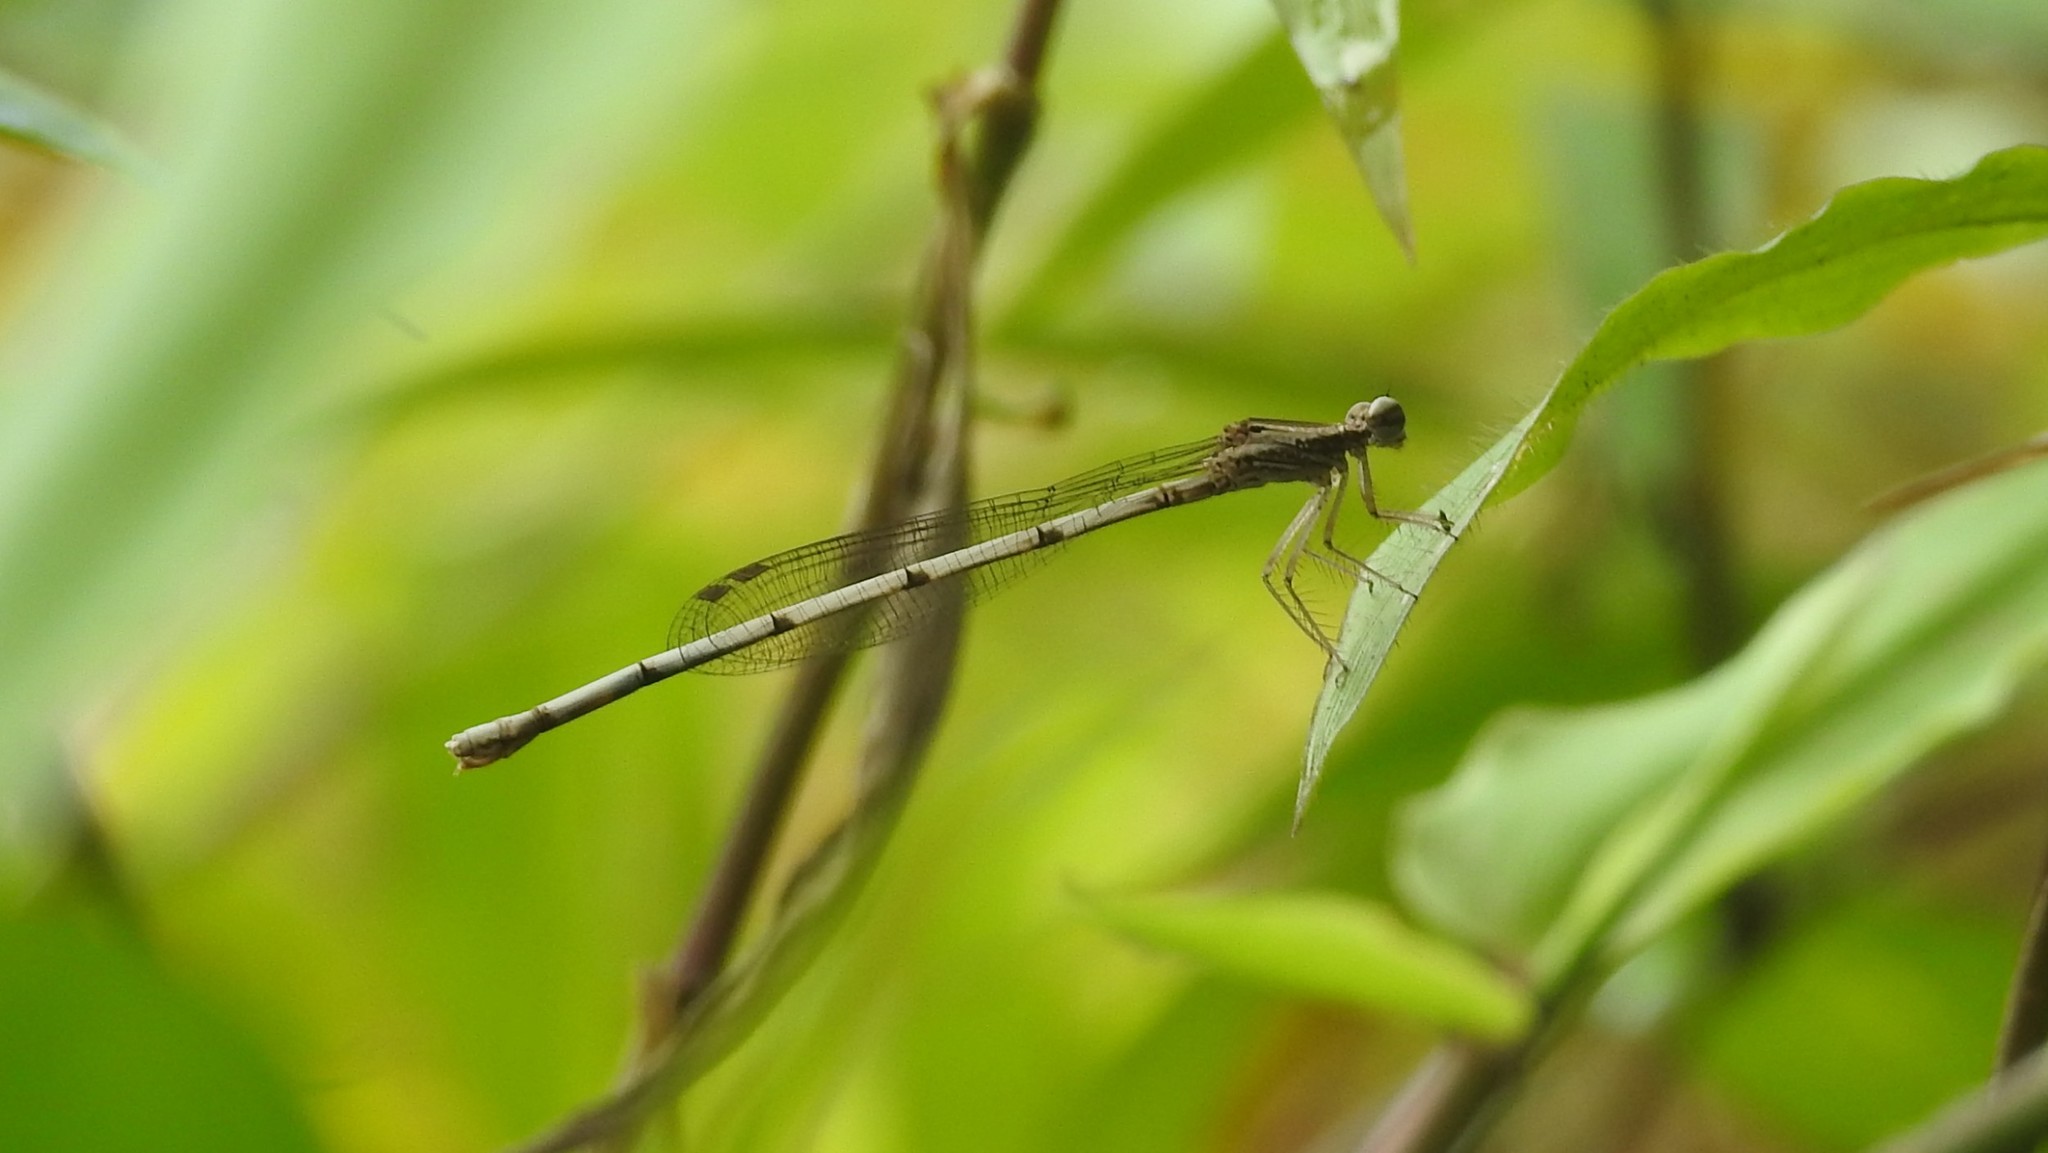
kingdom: Animalia
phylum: Arthropoda
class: Insecta
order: Odonata
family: Platycnemididae
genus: Copera
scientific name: Copera vittata
